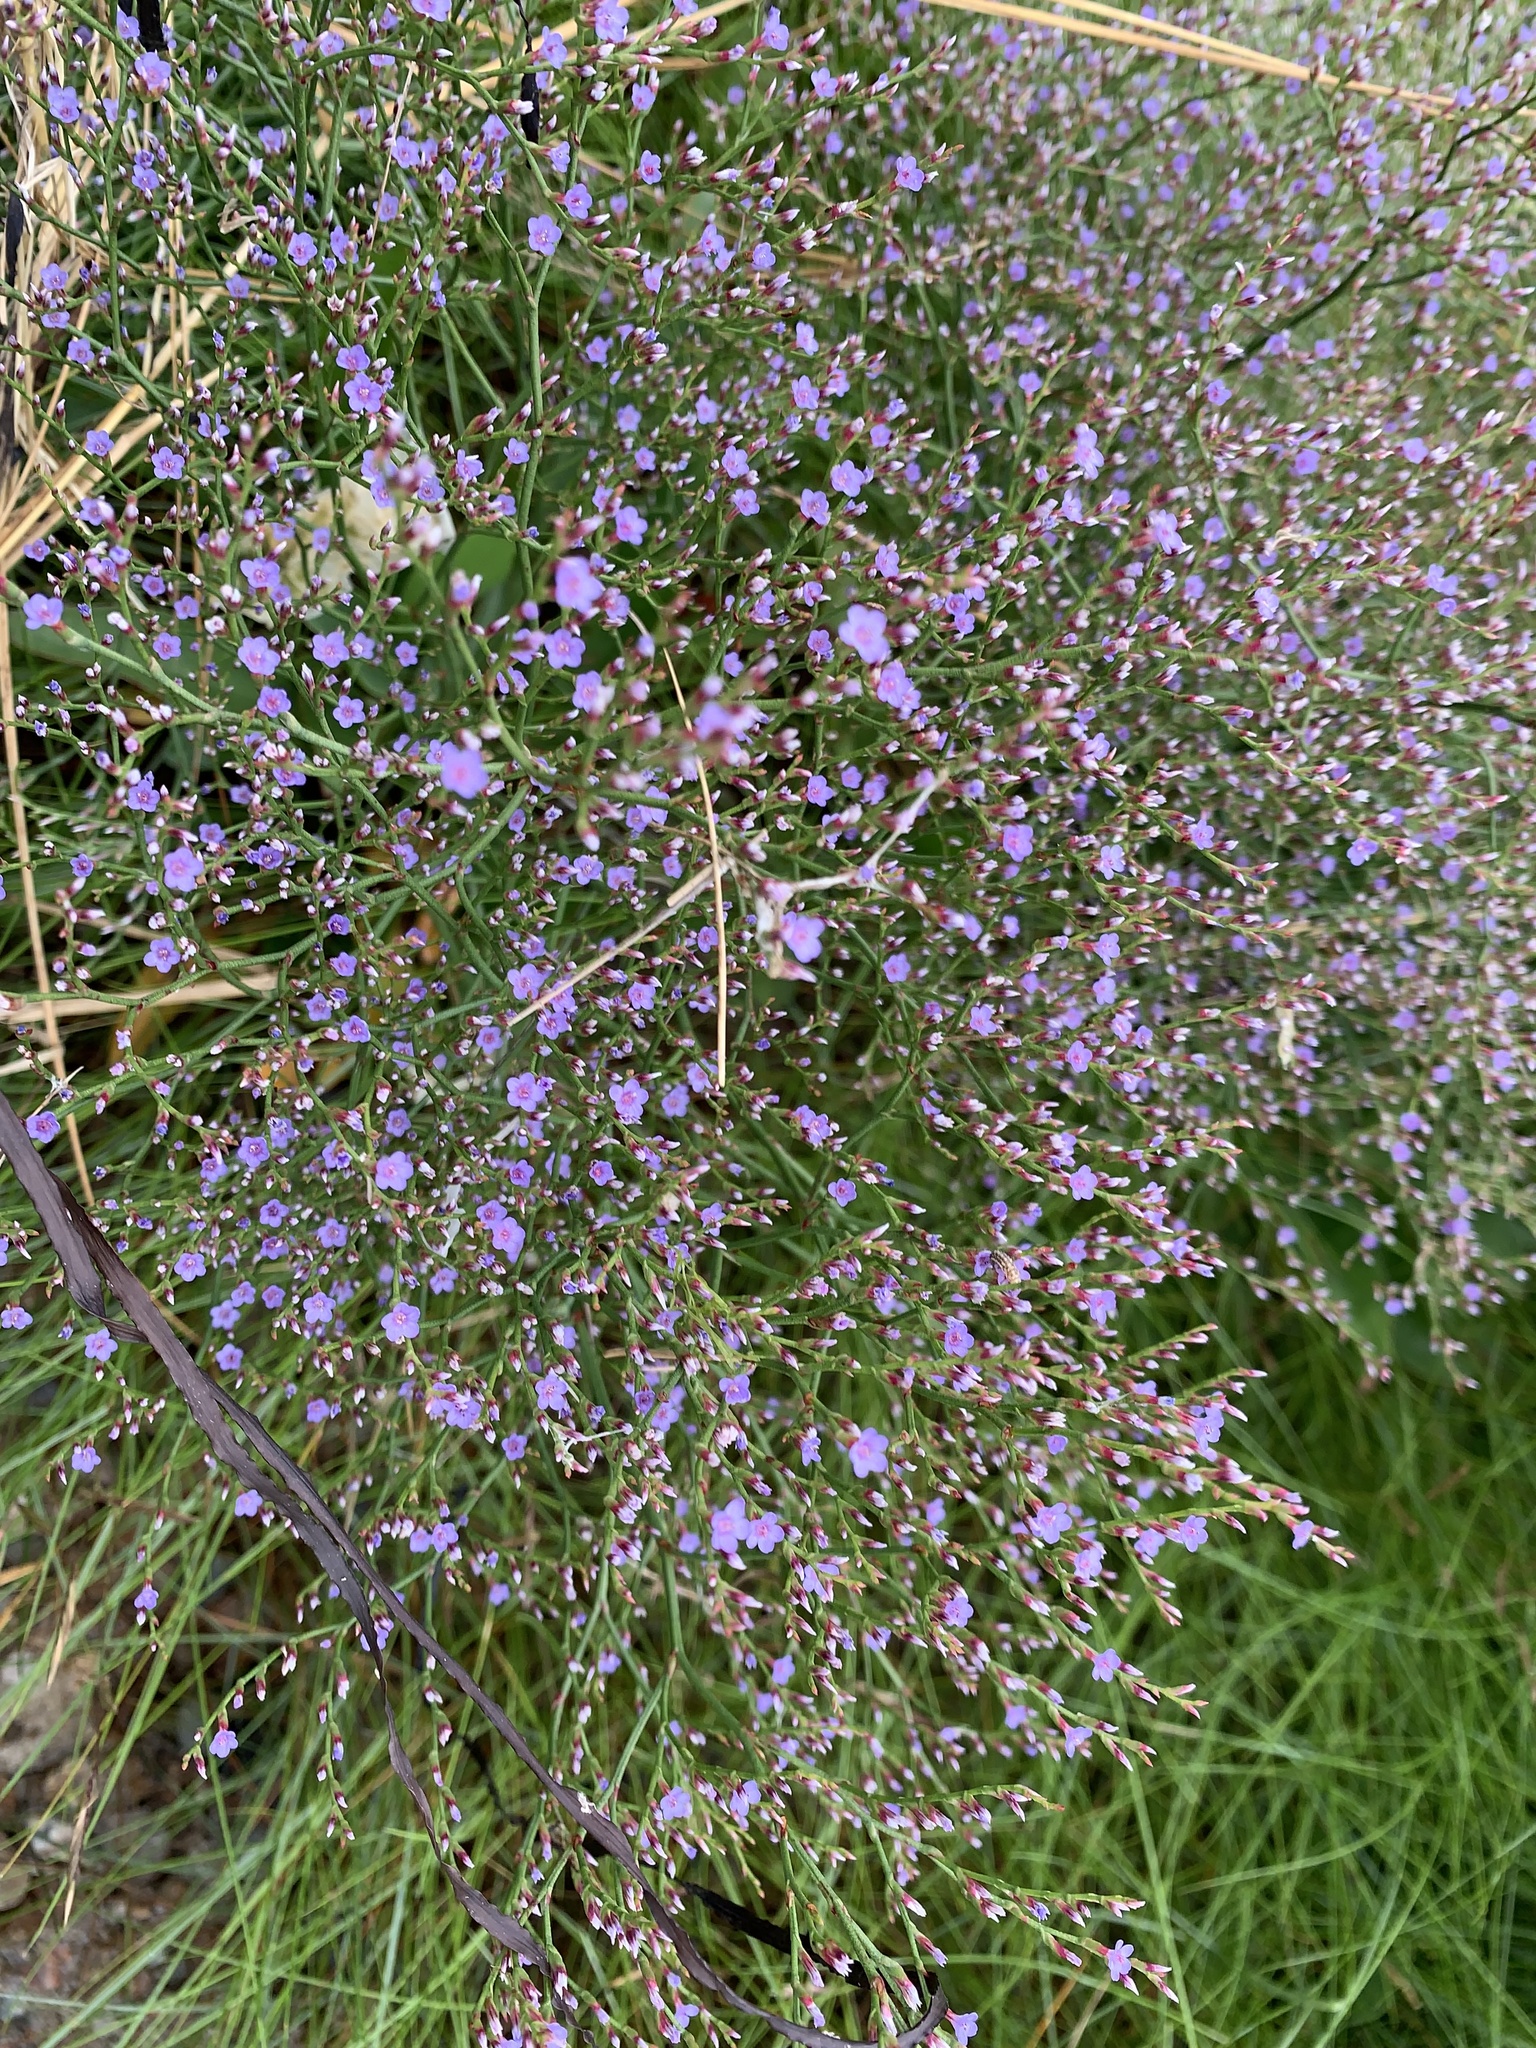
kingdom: Plantae
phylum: Tracheophyta
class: Magnoliopsida
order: Caryophyllales
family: Plumbaginaceae
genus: Limonium
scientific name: Limonium carolinianum
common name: Carolina sea lavender
